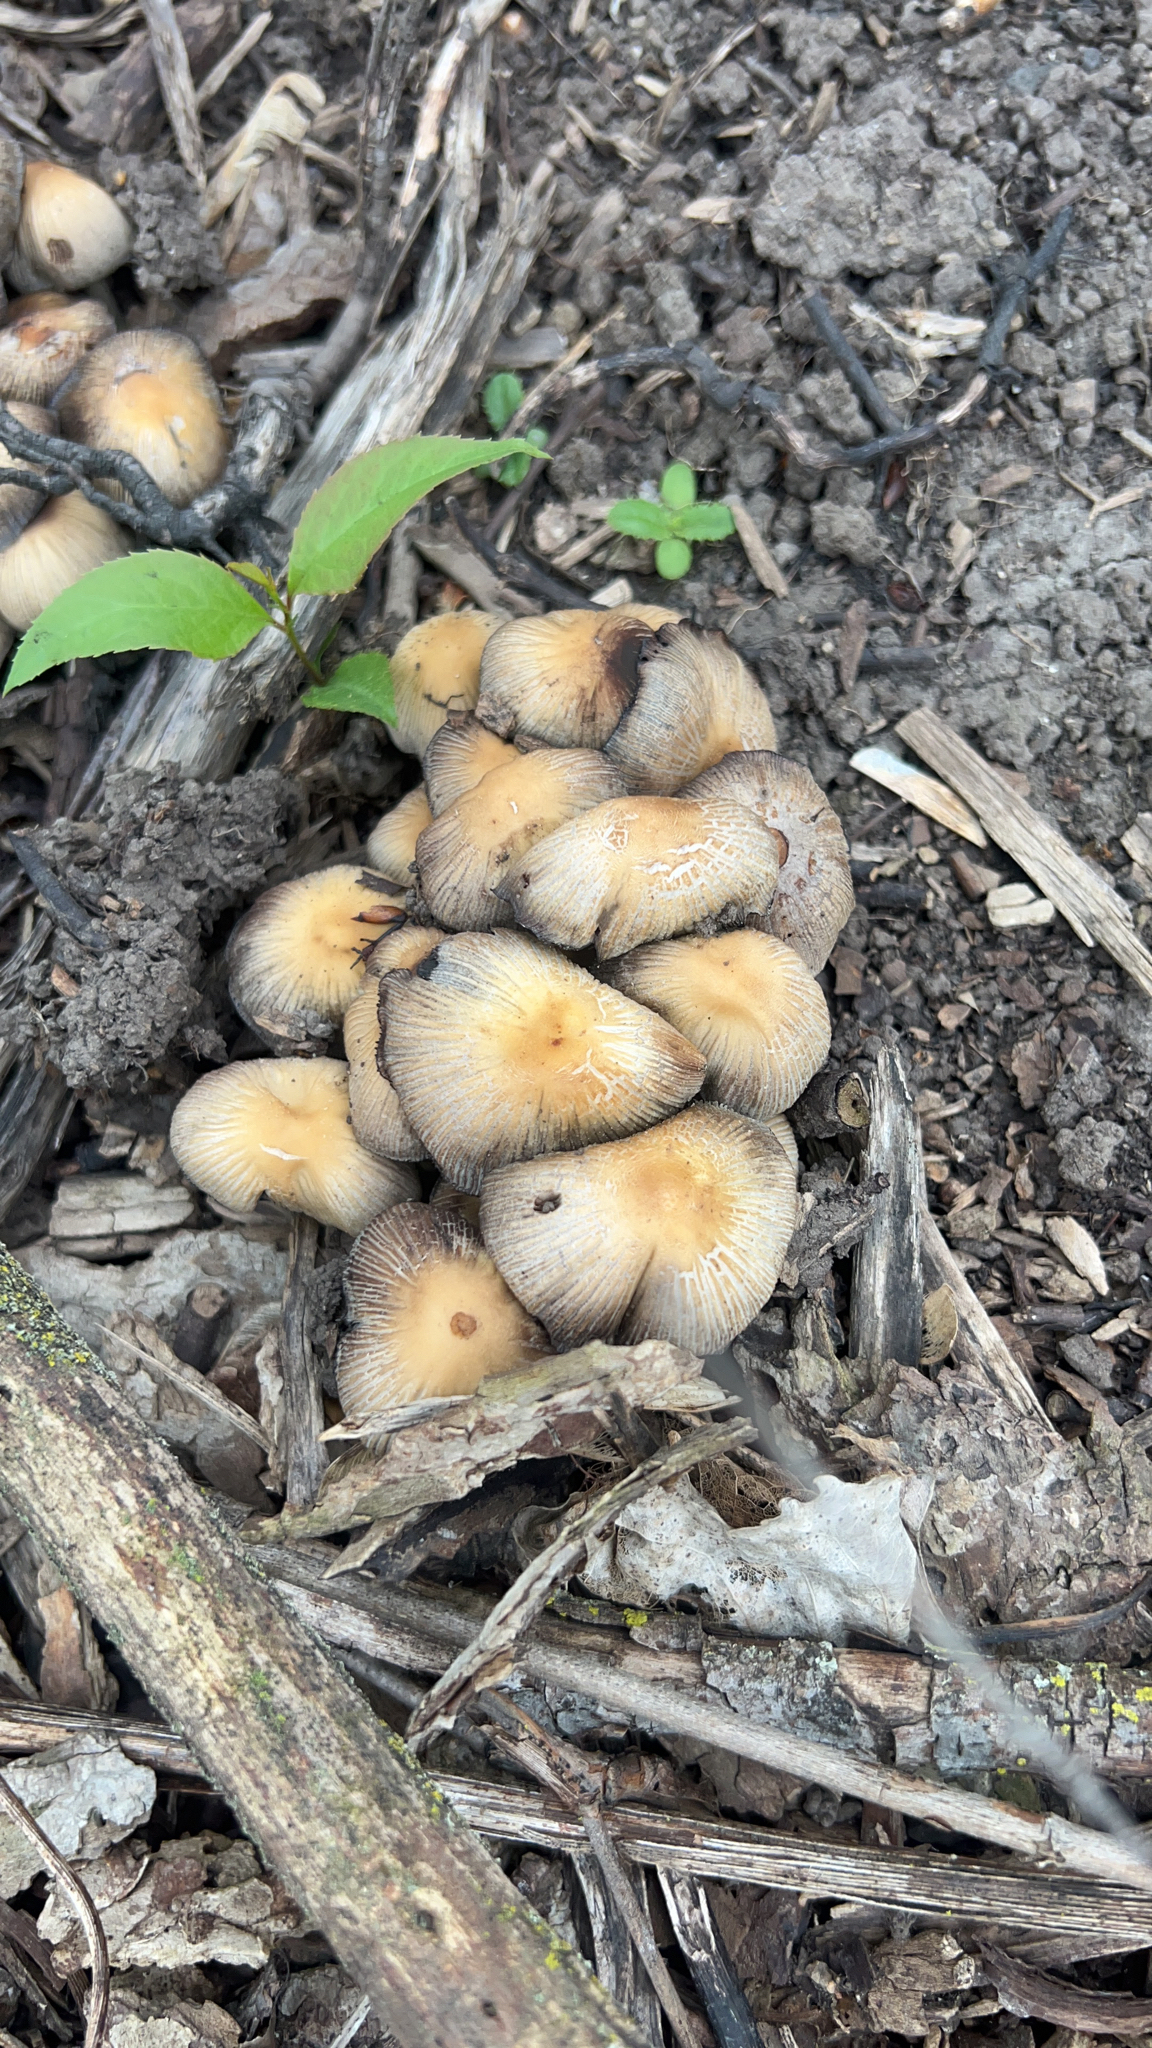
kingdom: Fungi
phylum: Basidiomycota
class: Agaricomycetes
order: Agaricales
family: Psathyrellaceae
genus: Coprinellus
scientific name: Coprinellus micaceus
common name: Glistening ink-cap
